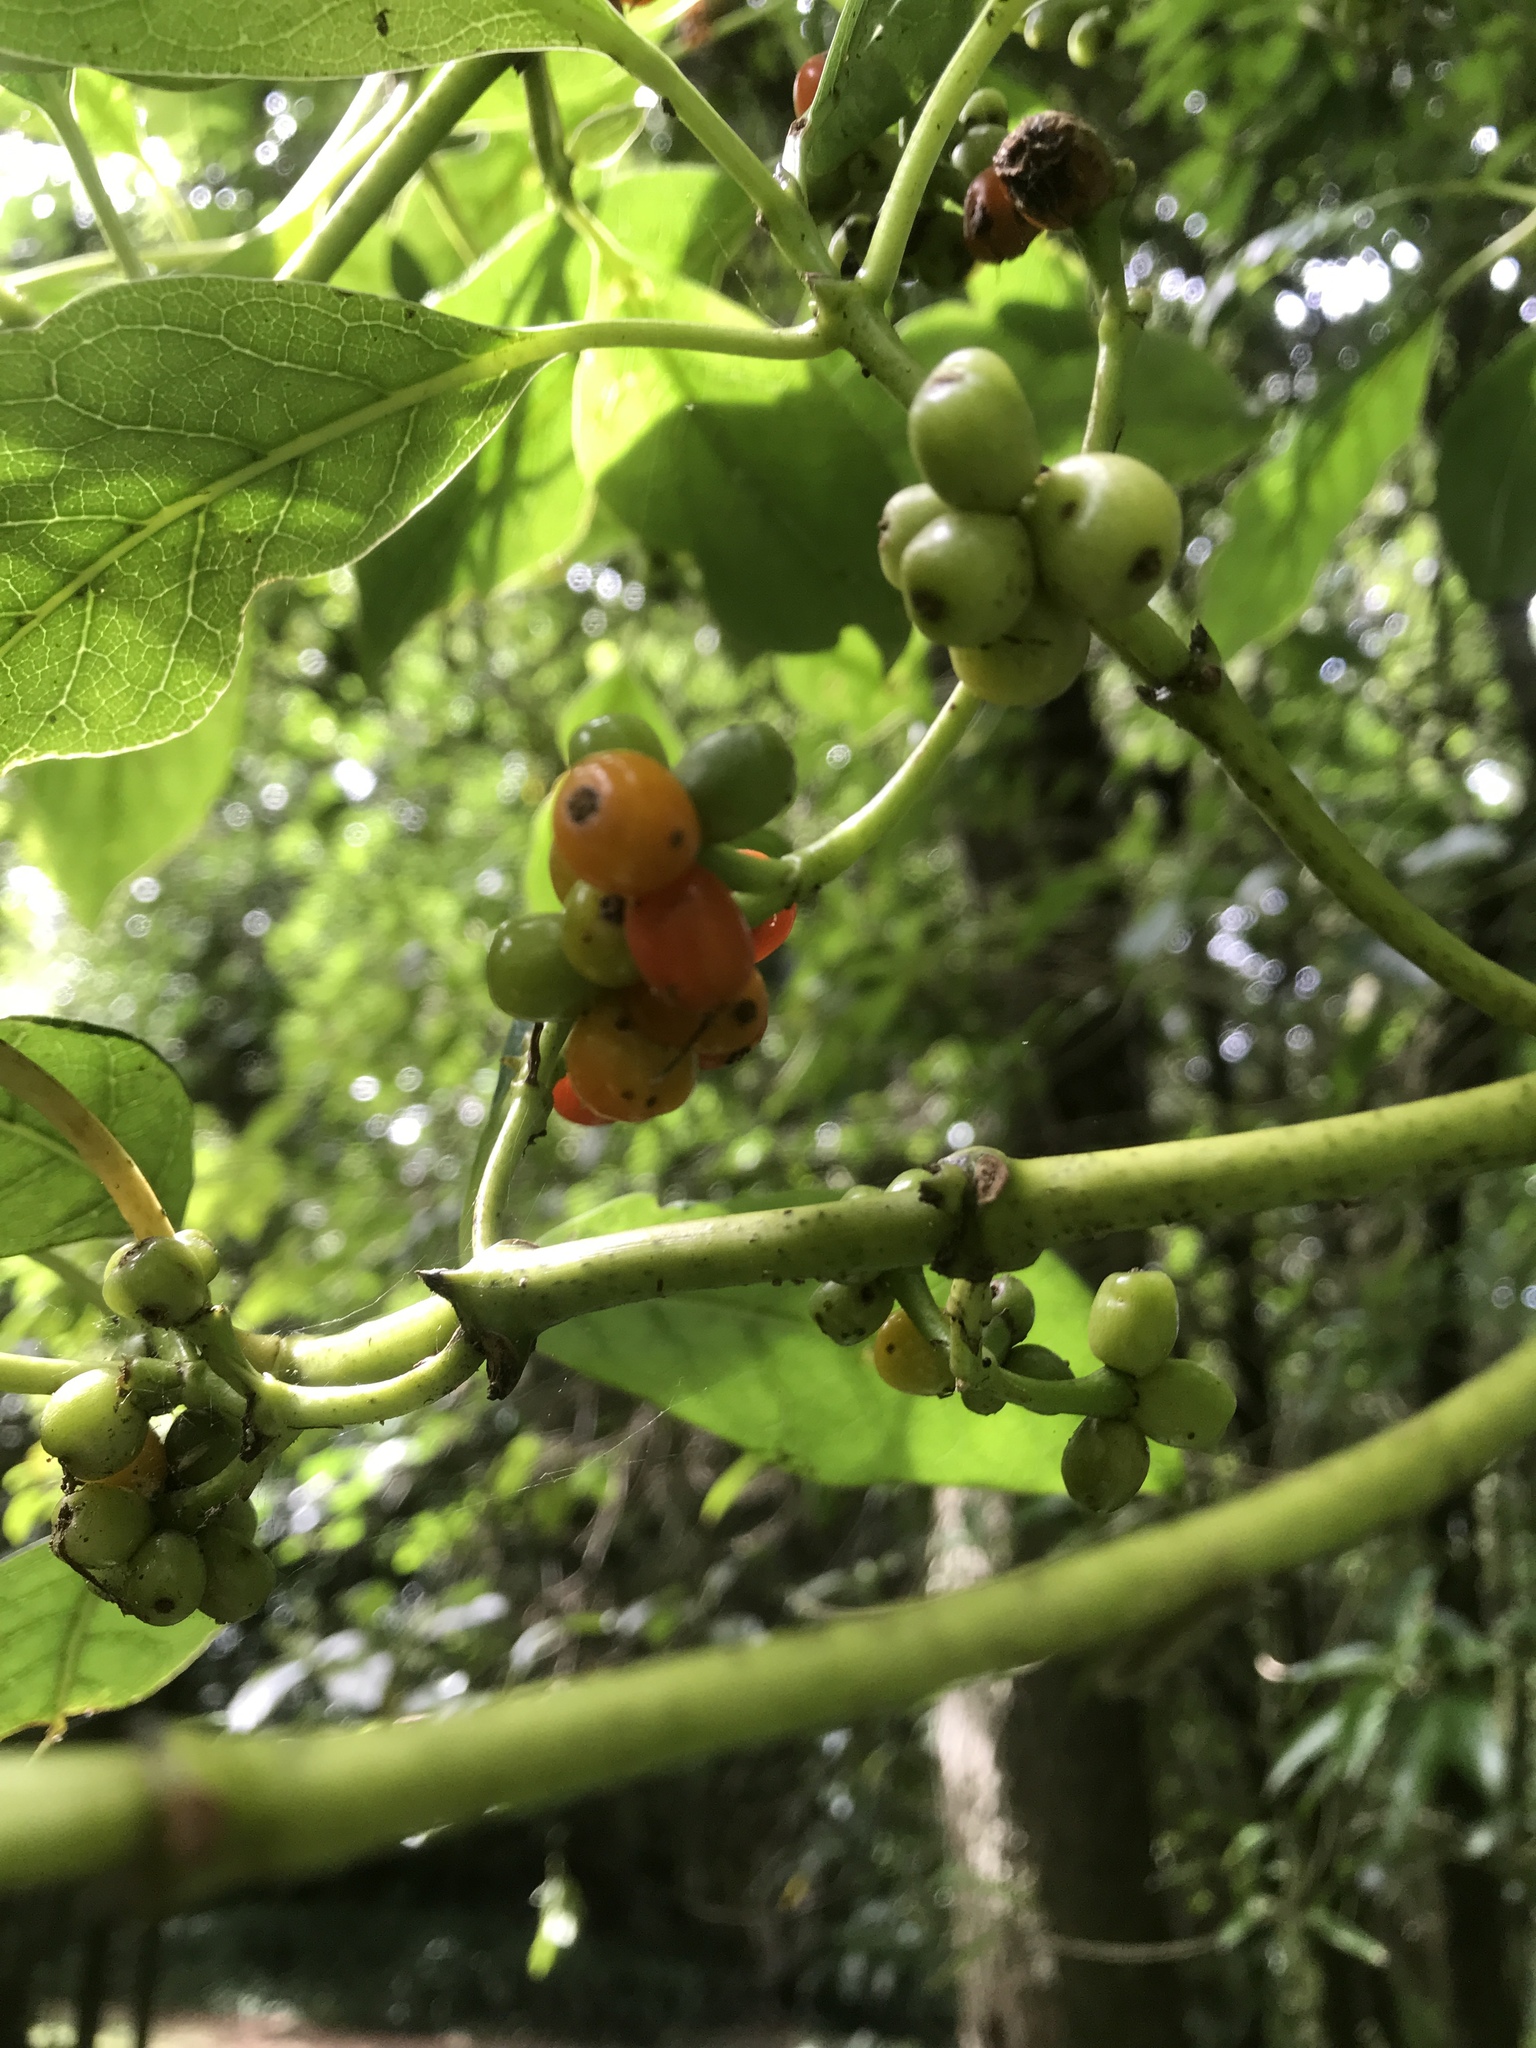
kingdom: Plantae
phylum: Tracheophyta
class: Magnoliopsida
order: Gentianales
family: Rubiaceae
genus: Coprosma
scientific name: Coprosma autumnalis
